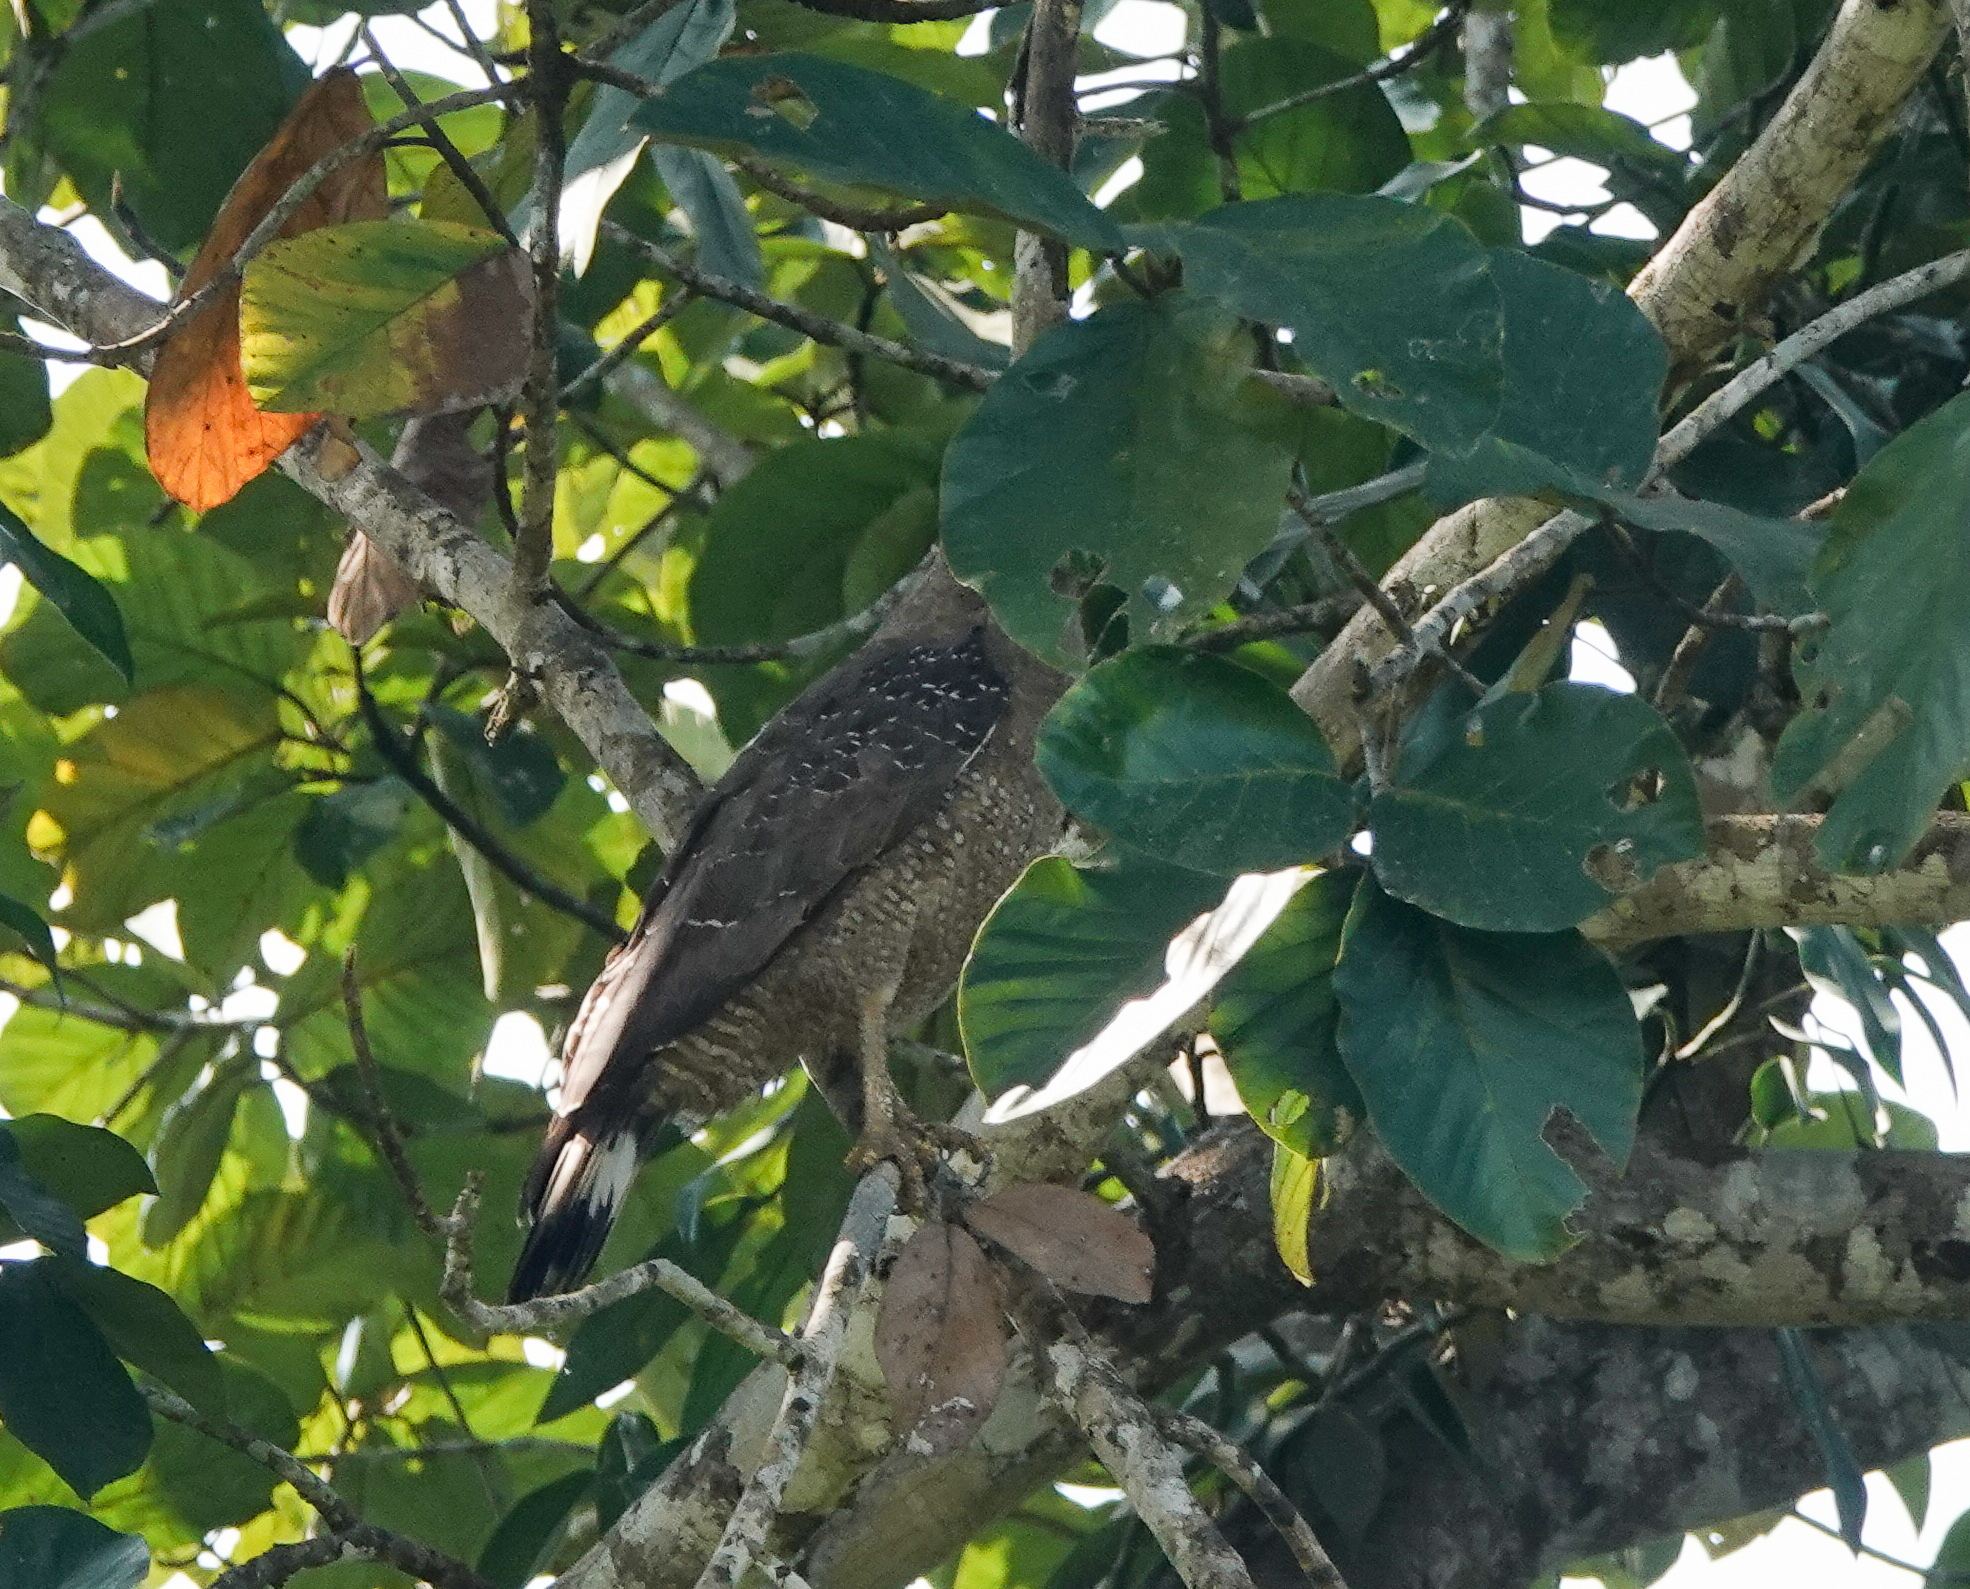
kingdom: Animalia
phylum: Chordata
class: Aves
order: Accipitriformes
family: Accipitridae
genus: Spilornis
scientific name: Spilornis cheela
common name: Crested serpent eagle
